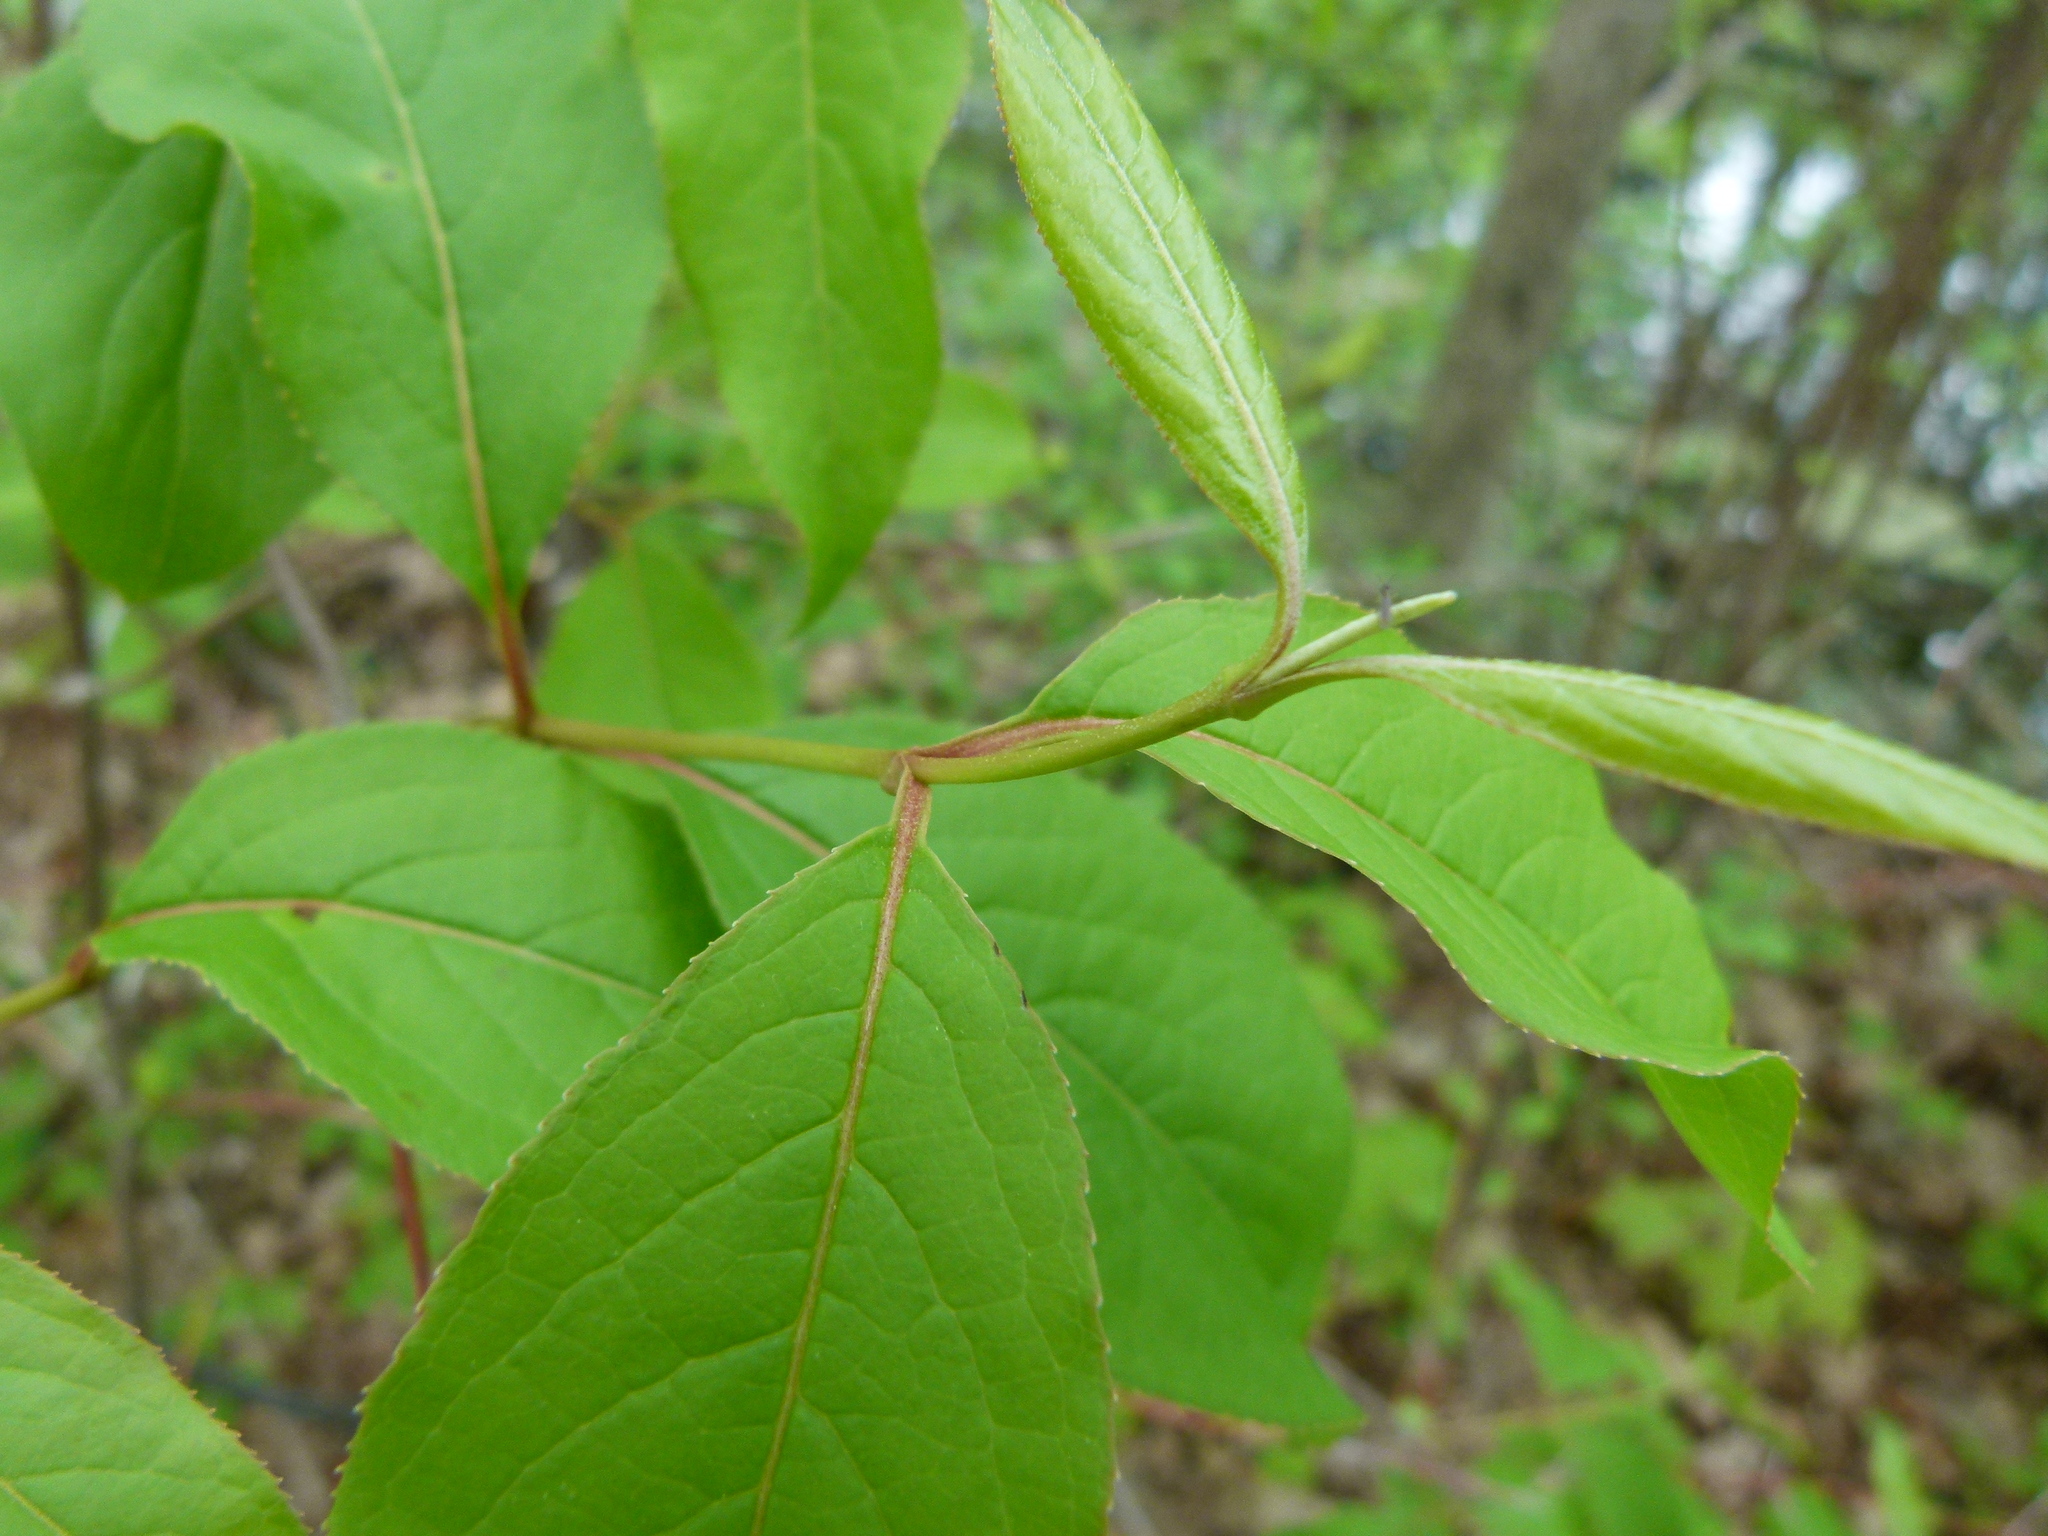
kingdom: Plantae
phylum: Tracheophyta
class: Magnoliopsida
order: Dipsacales
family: Viburnaceae
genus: Viburnum
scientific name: Viburnum prunifolium
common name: Black haw
